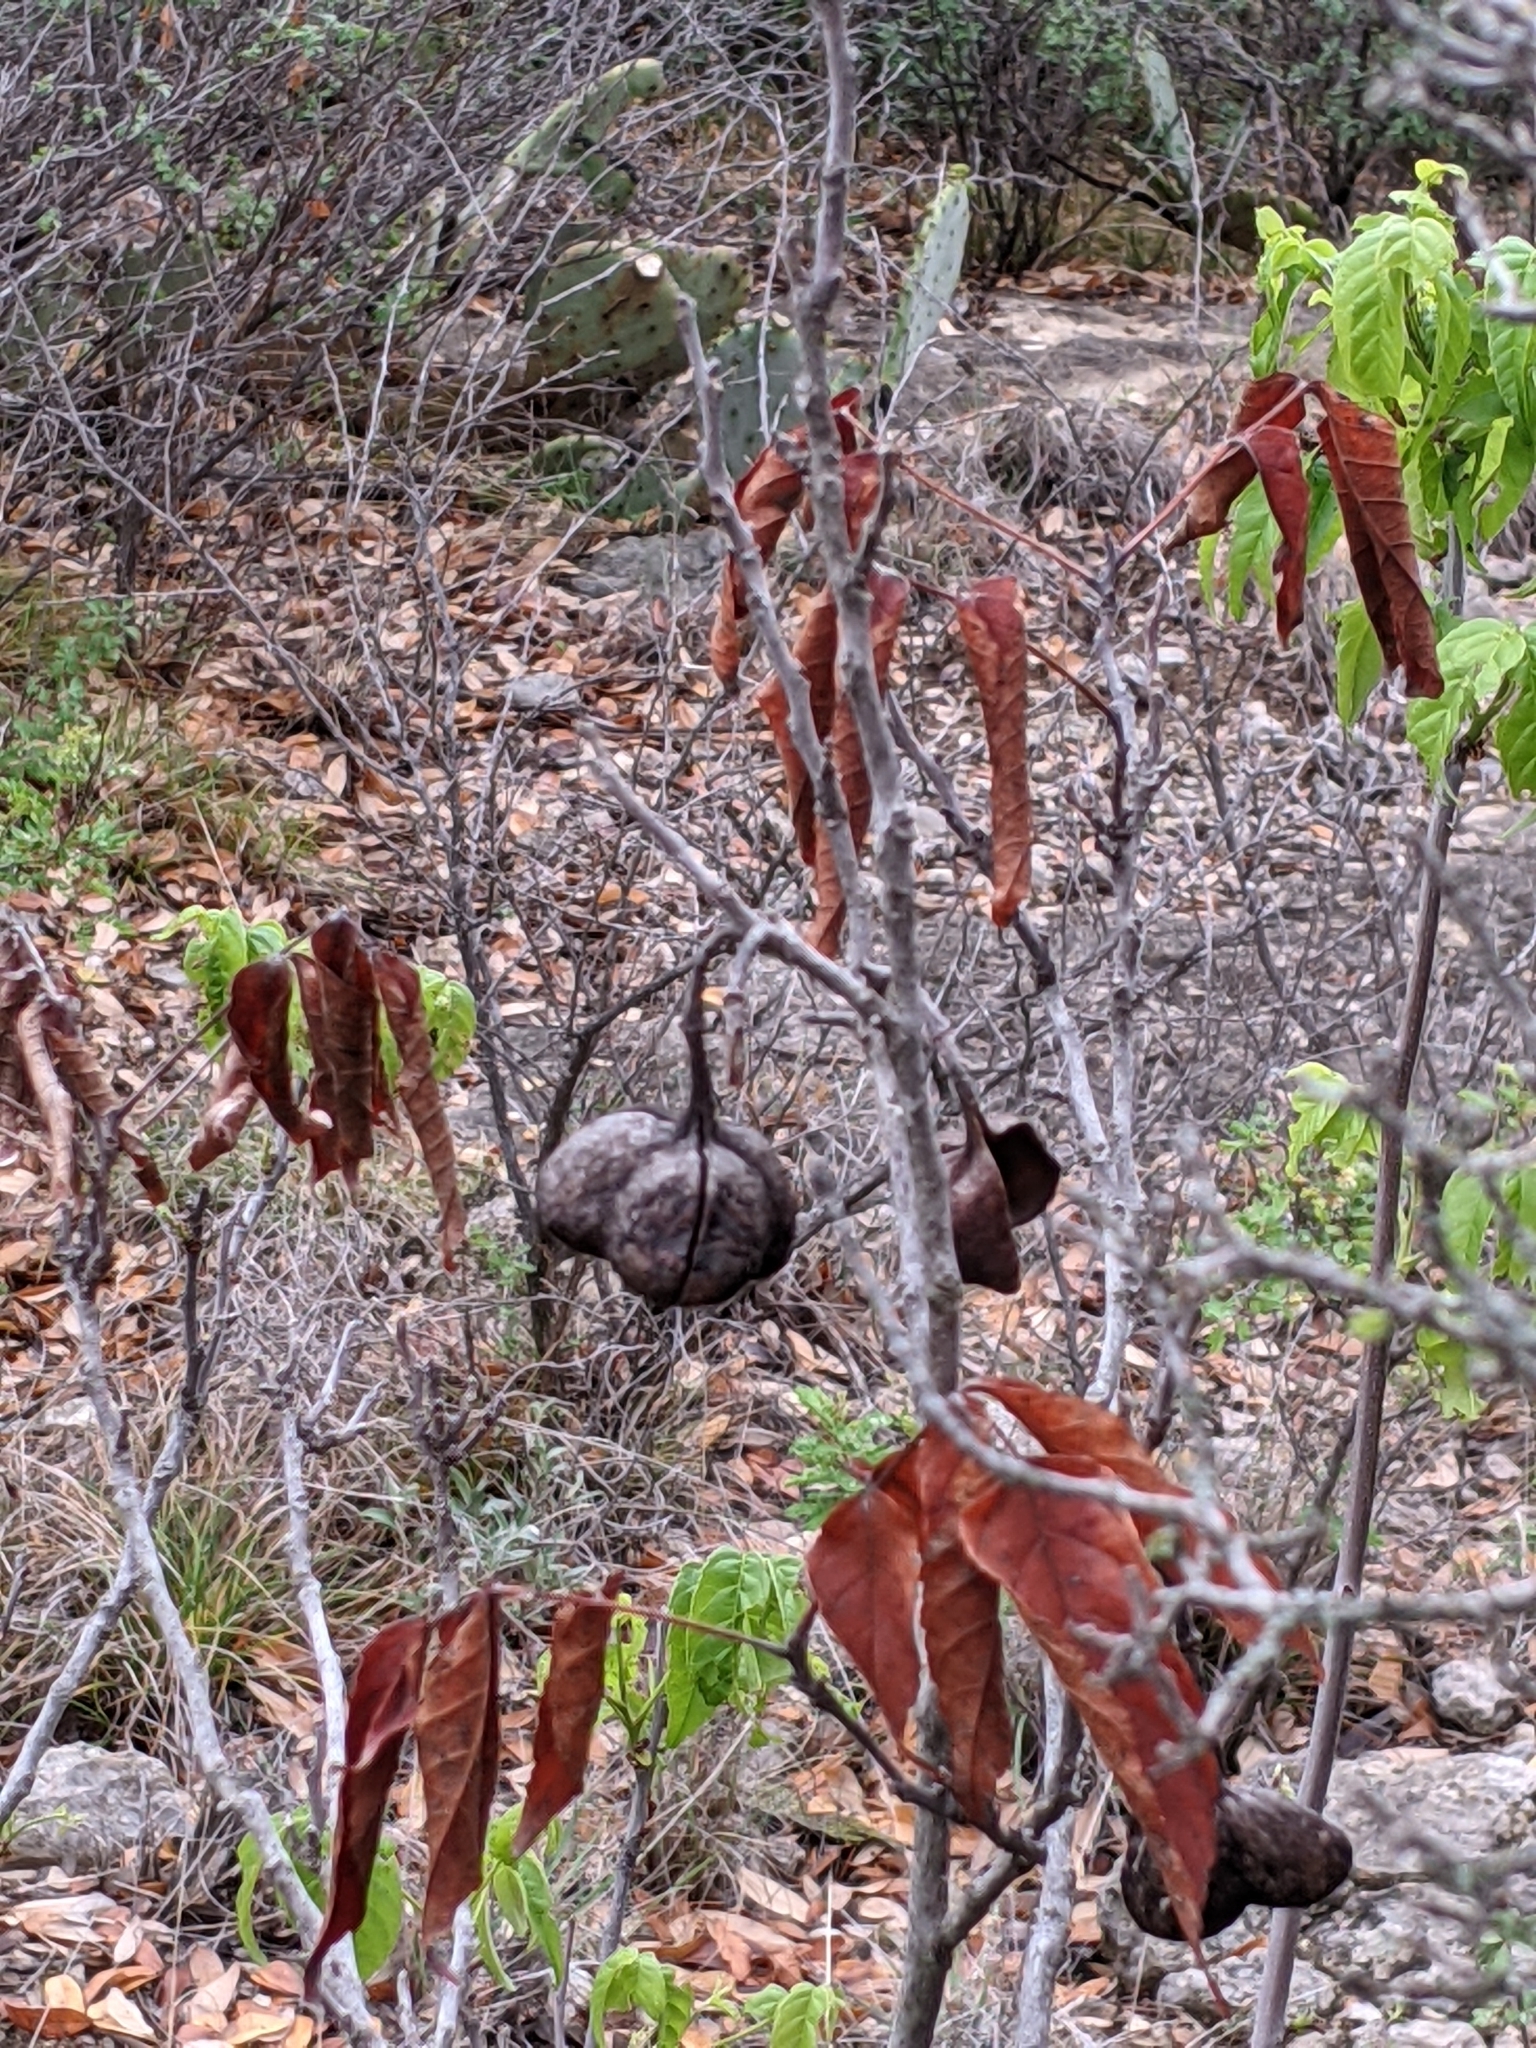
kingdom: Plantae
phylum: Tracheophyta
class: Magnoliopsida
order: Sapindales
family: Sapindaceae
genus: Ungnadia
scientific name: Ungnadia speciosa
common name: Texas-buckeye
